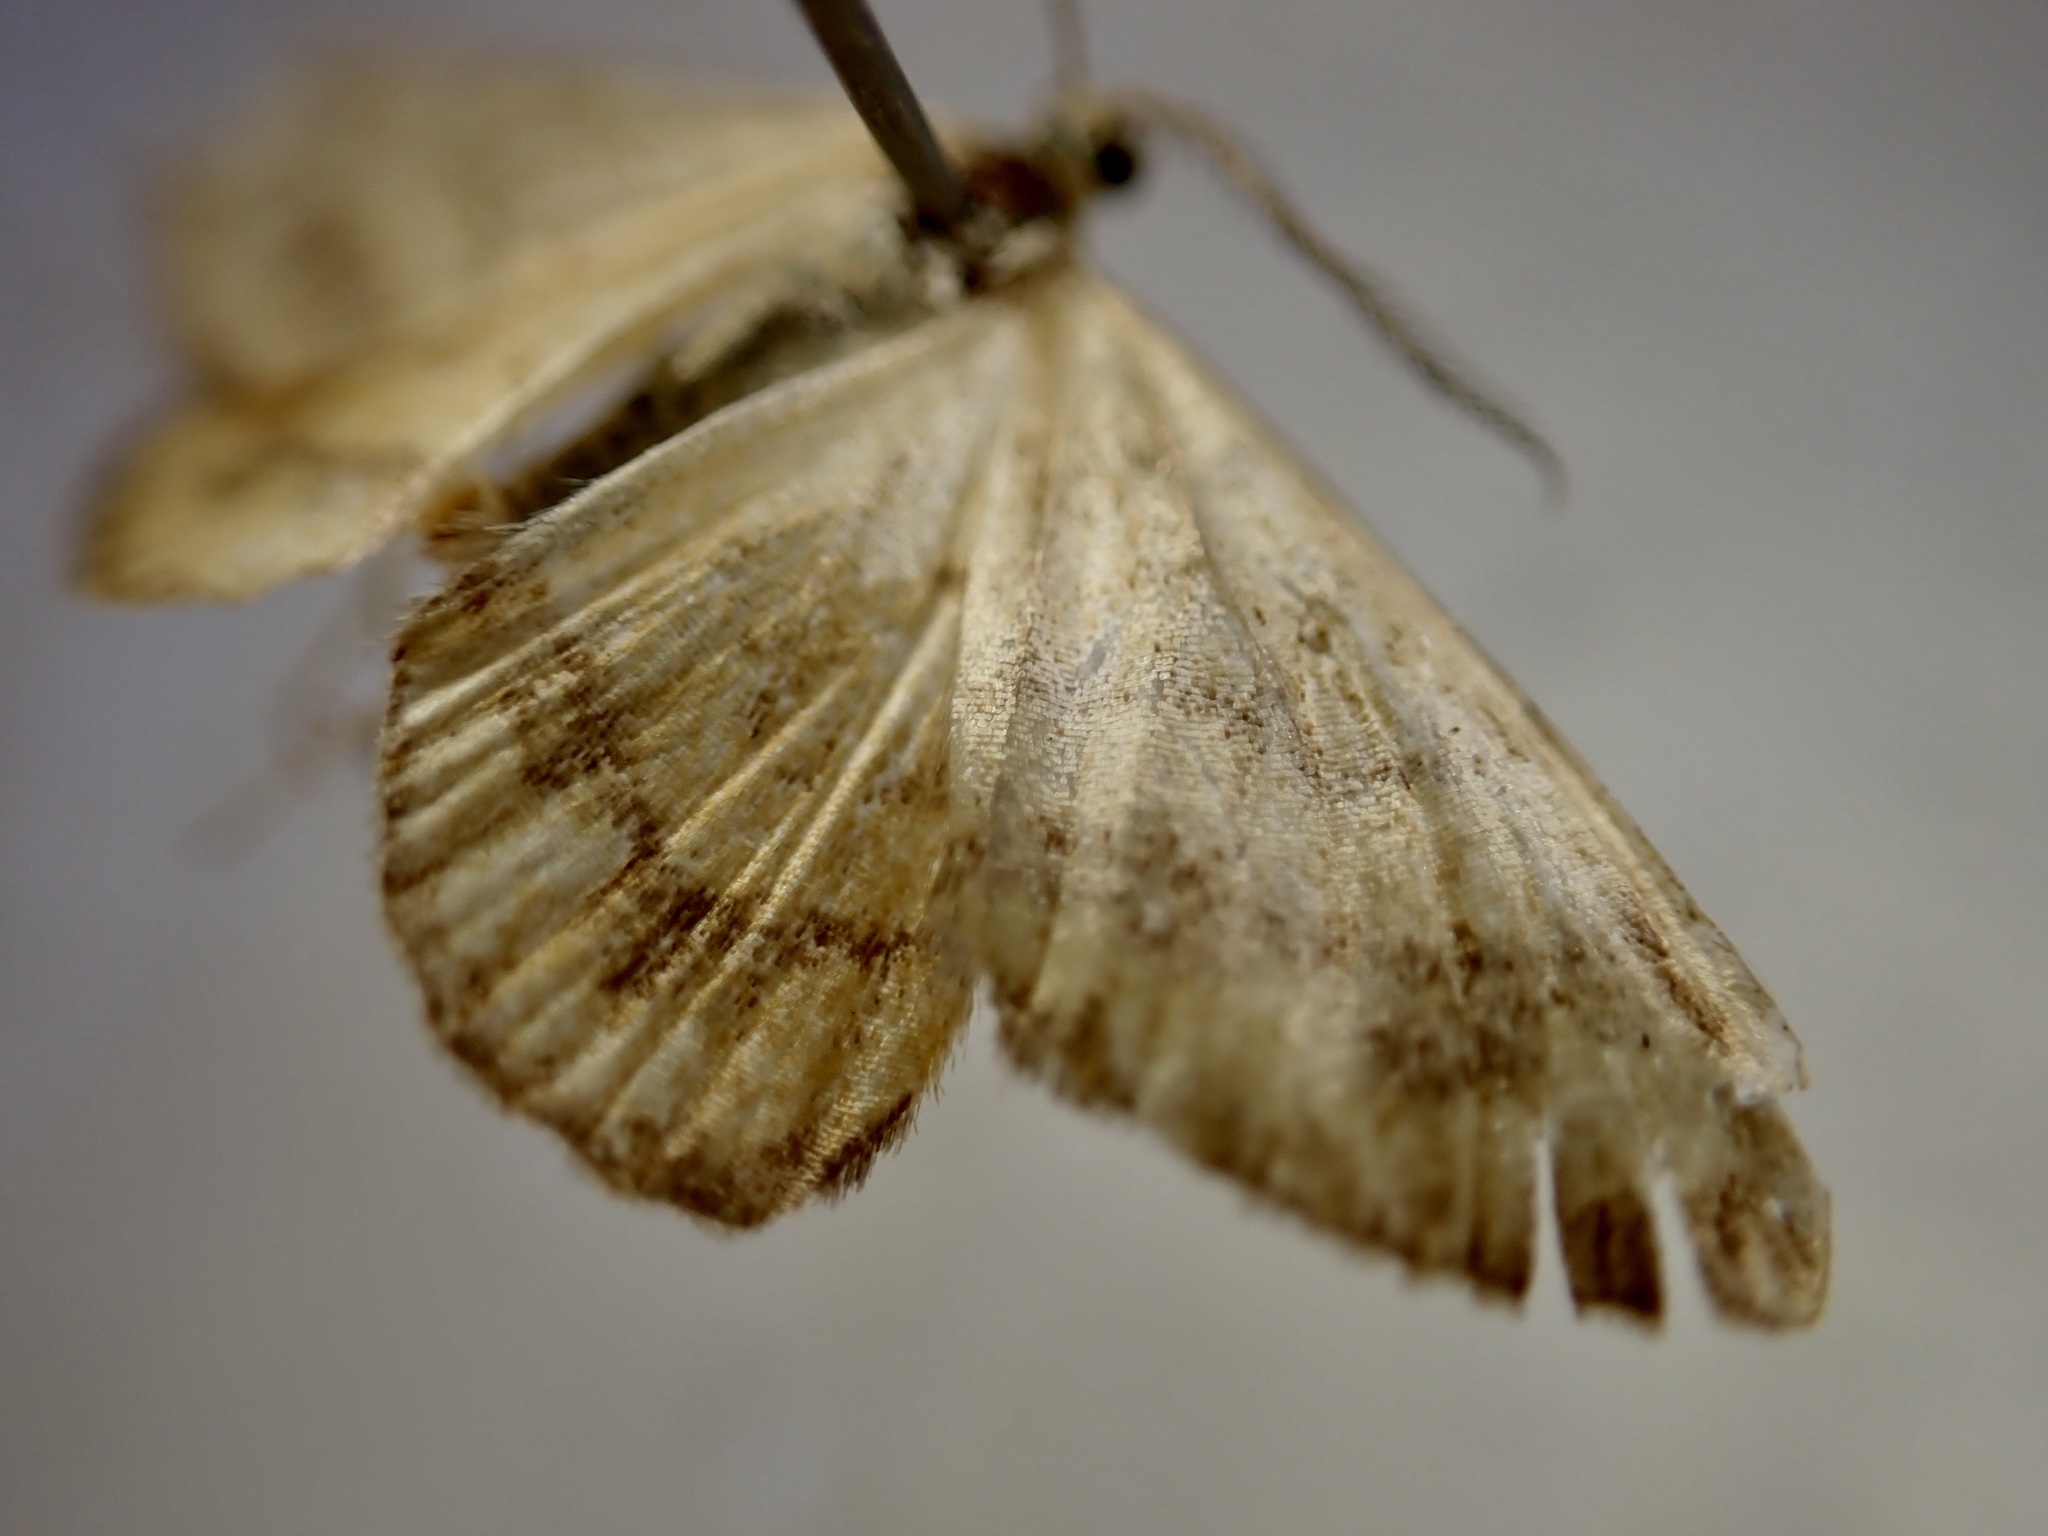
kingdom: Animalia
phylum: Arthropoda
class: Insecta
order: Lepidoptera
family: Geometridae
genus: Asaphodes
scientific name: Asaphodes abrogata
